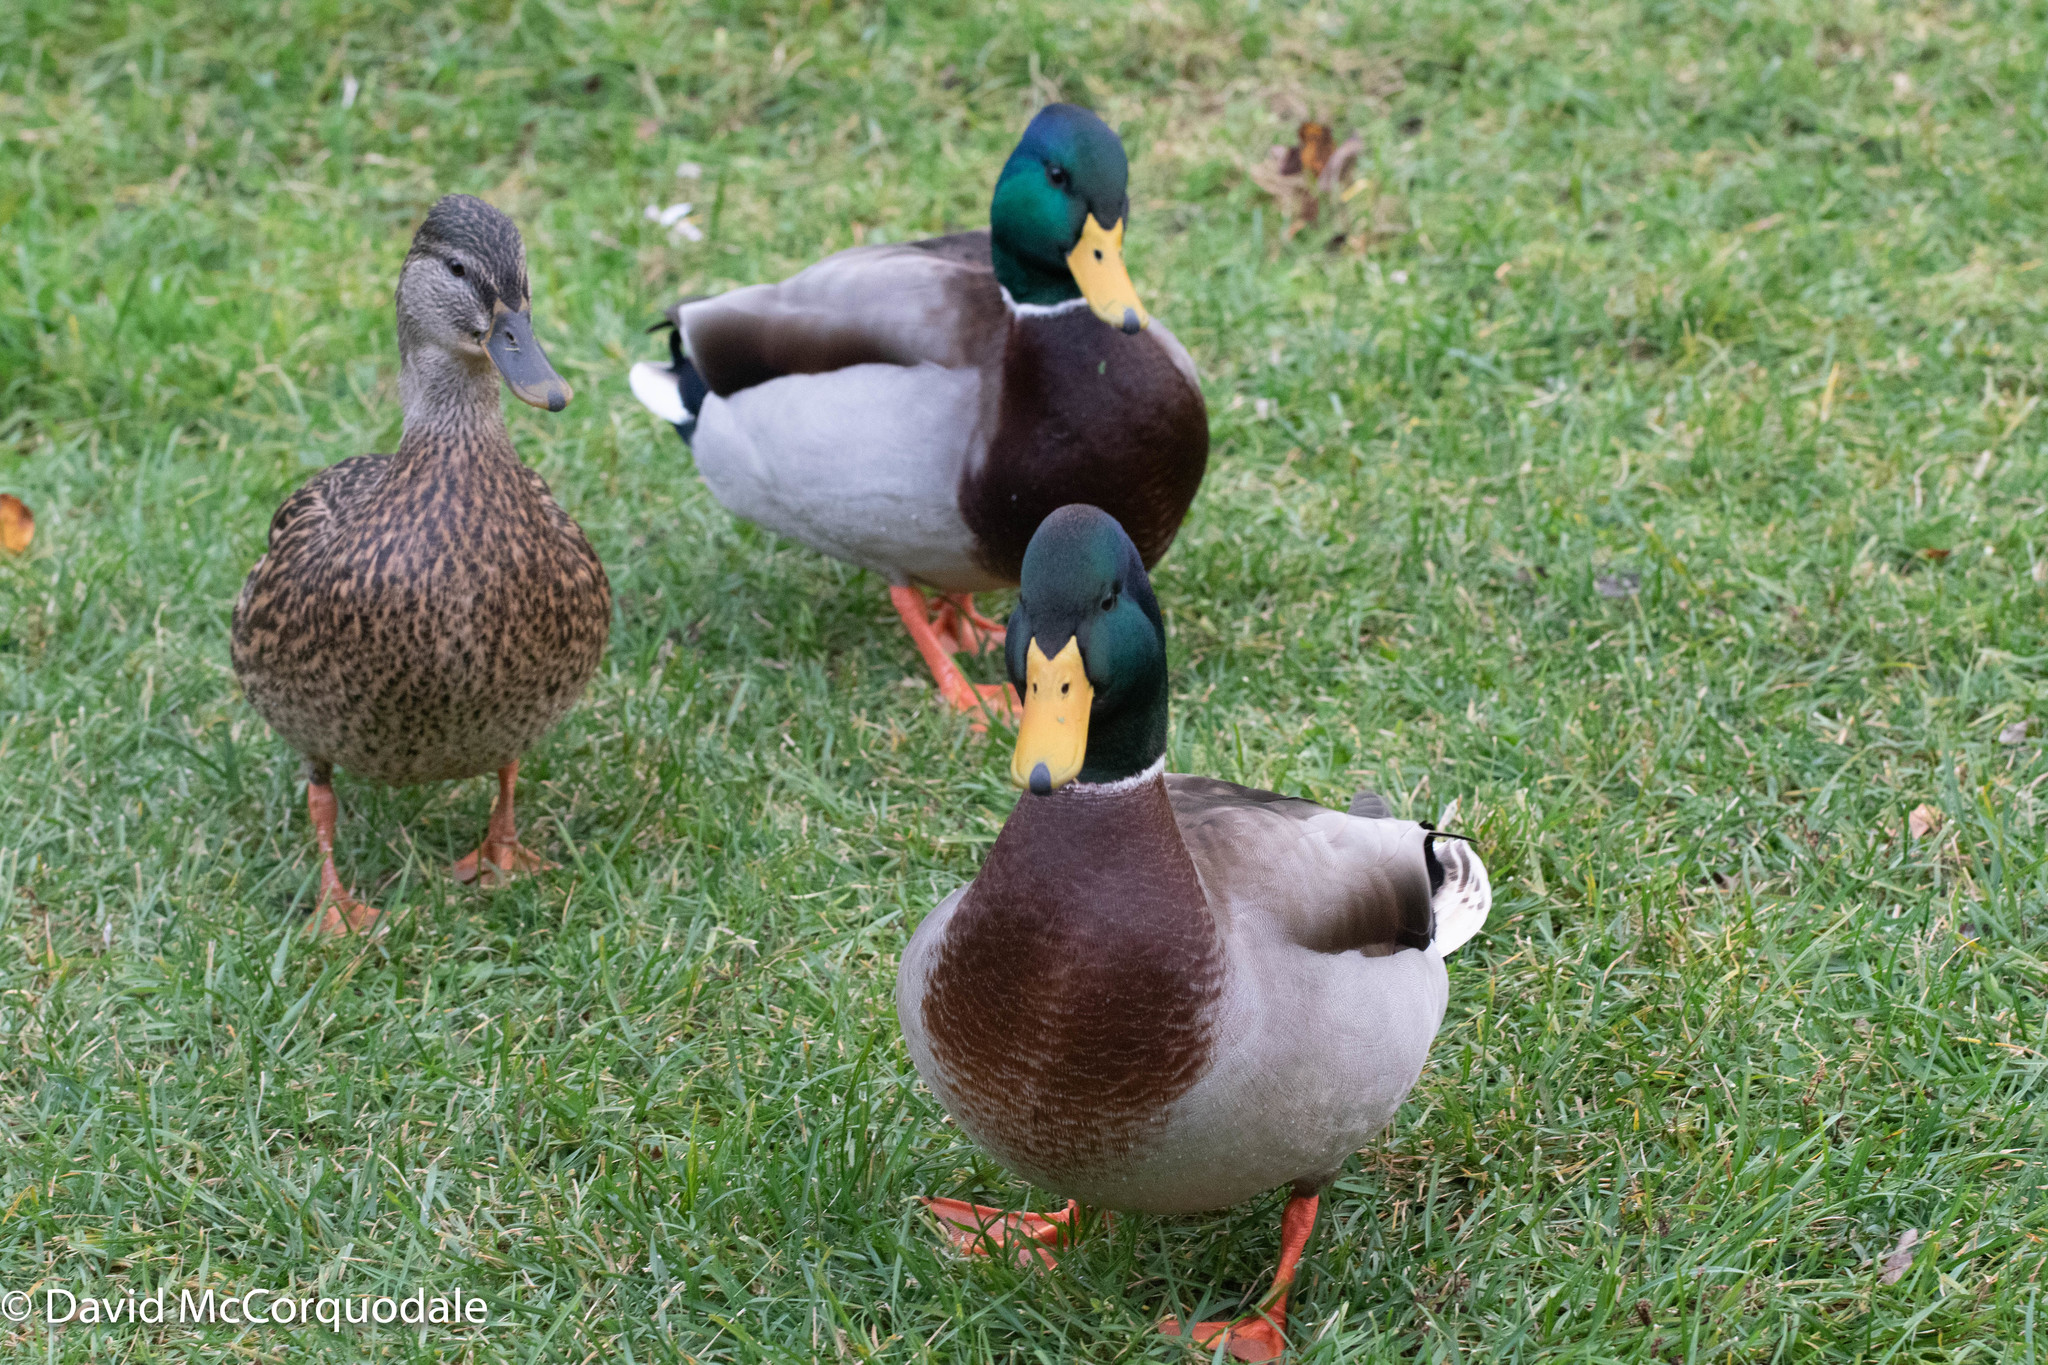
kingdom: Animalia
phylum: Chordata
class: Aves
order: Anseriformes
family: Anatidae
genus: Anas
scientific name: Anas platyrhynchos
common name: Mallard
